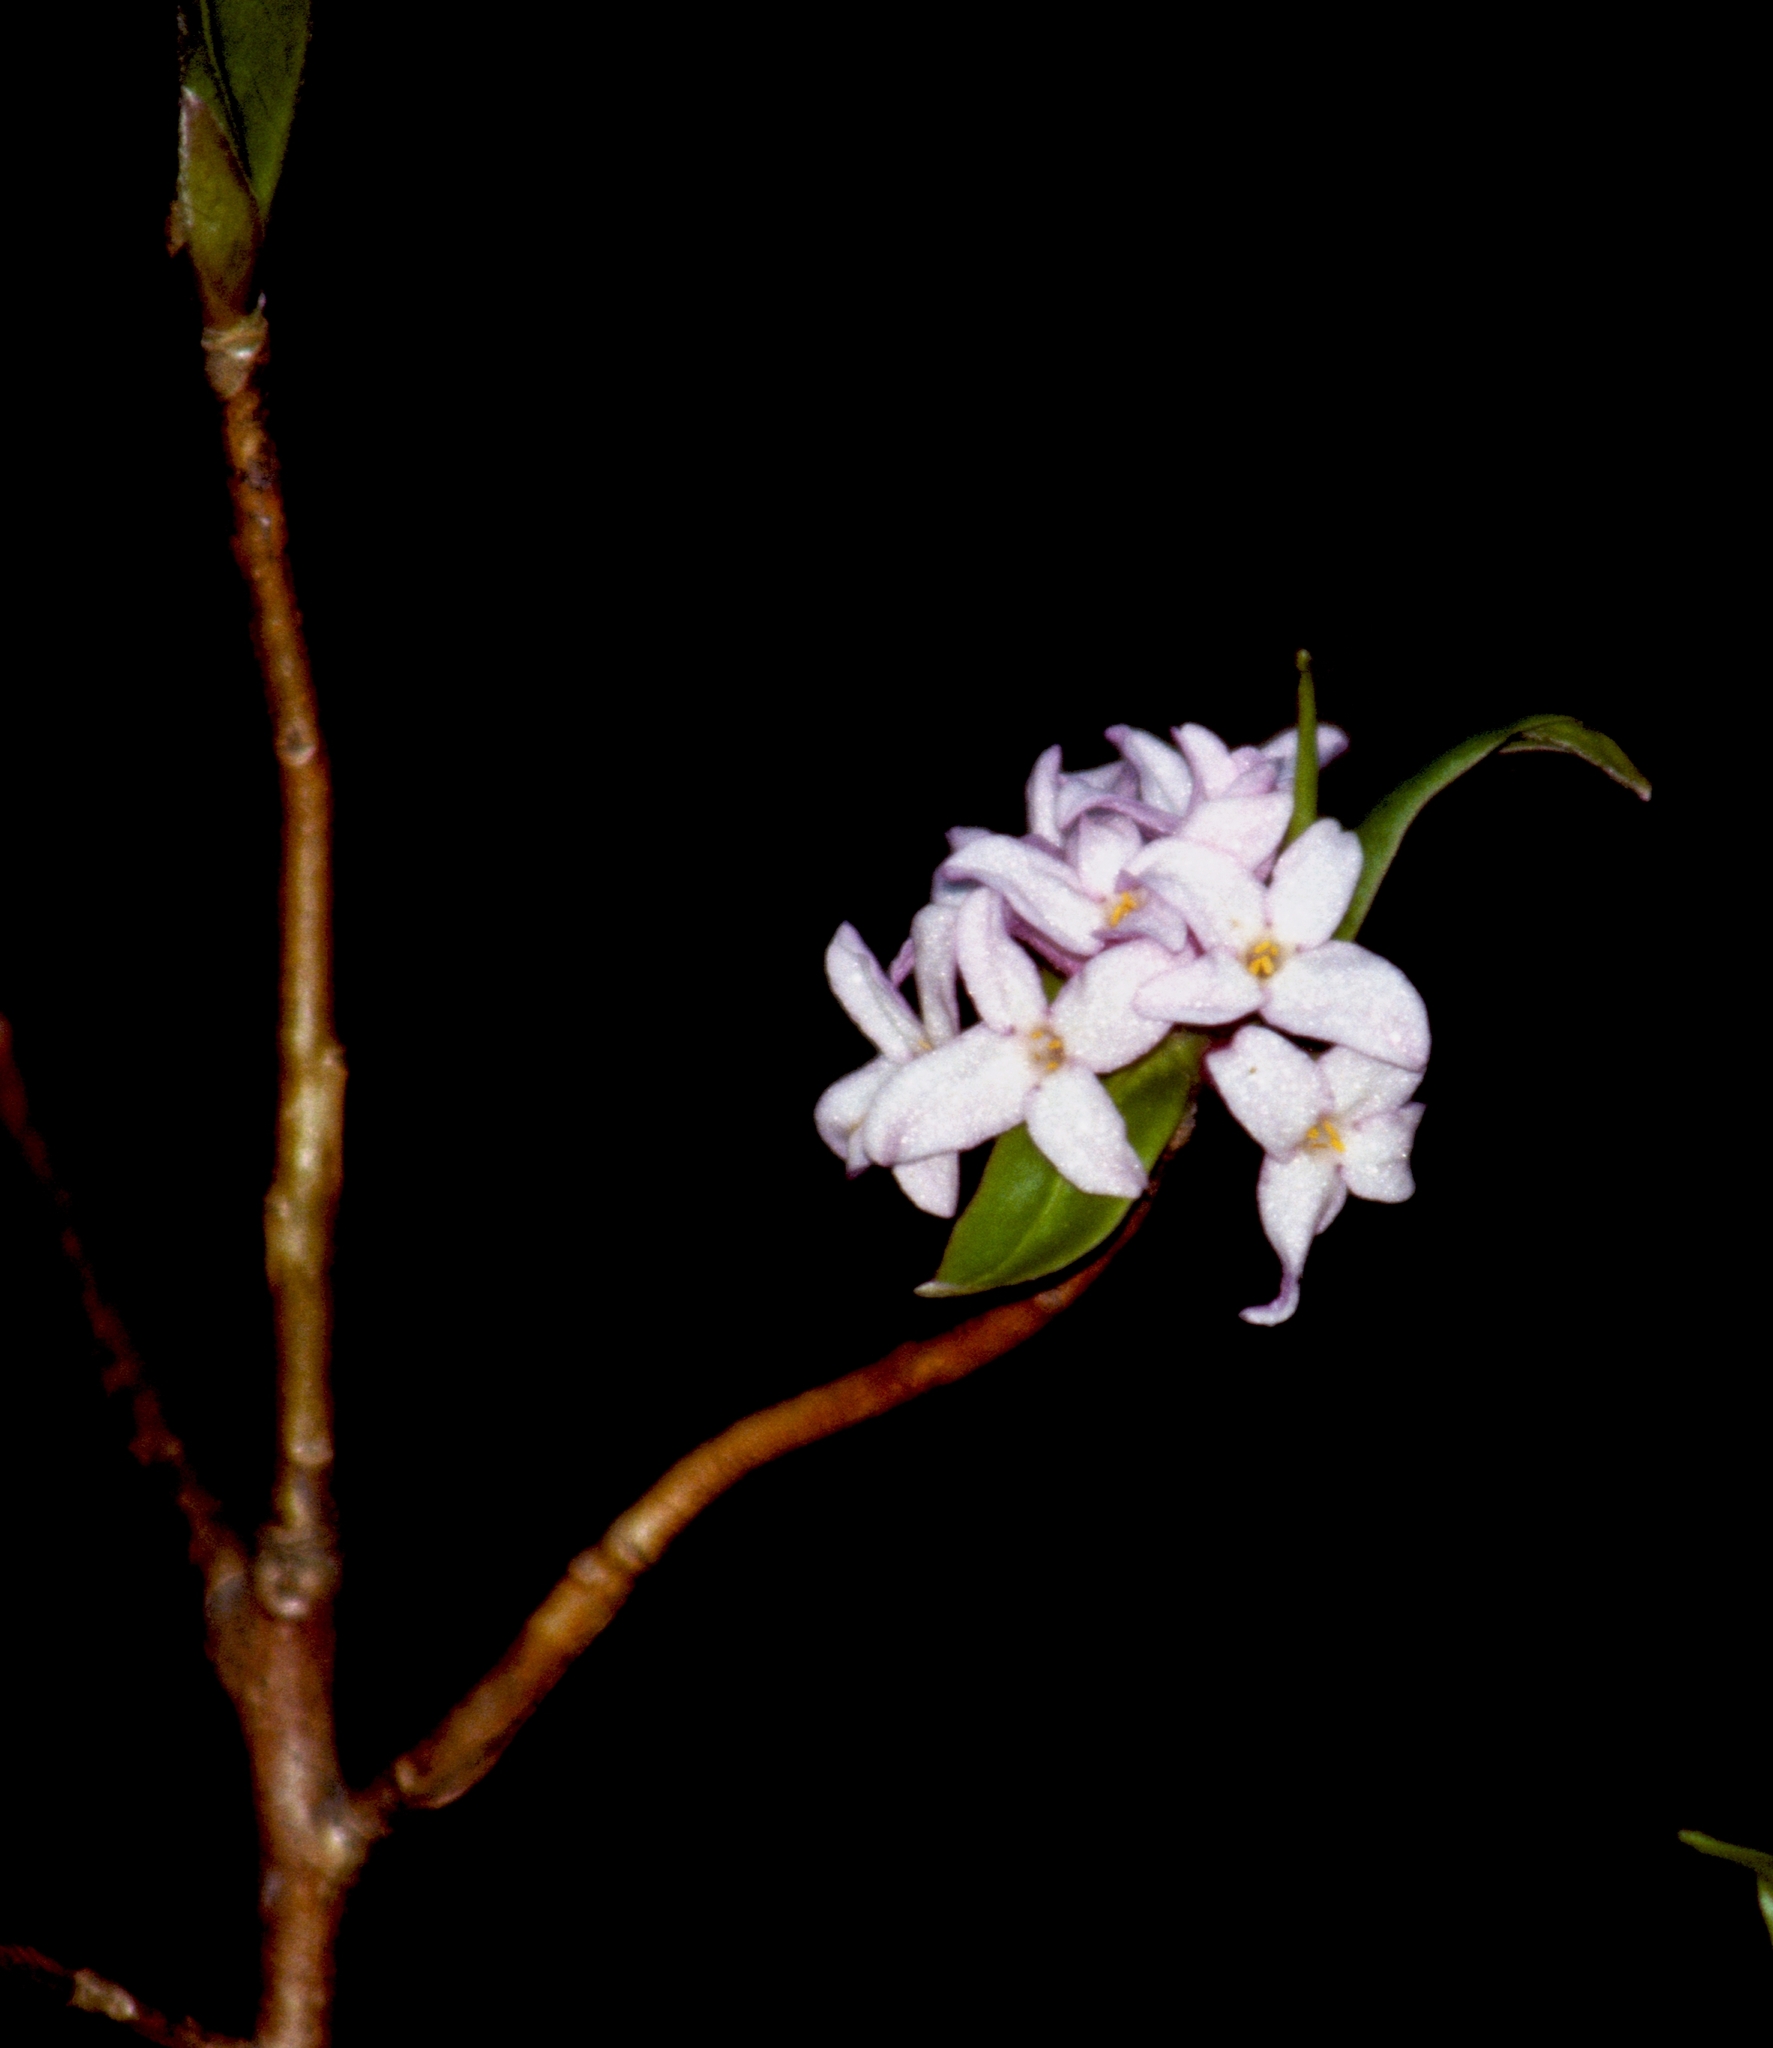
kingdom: Plantae
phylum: Tracheophyta
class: Magnoliopsida
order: Malvales
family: Thymelaeaceae
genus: Daphne
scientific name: Daphne bholua
